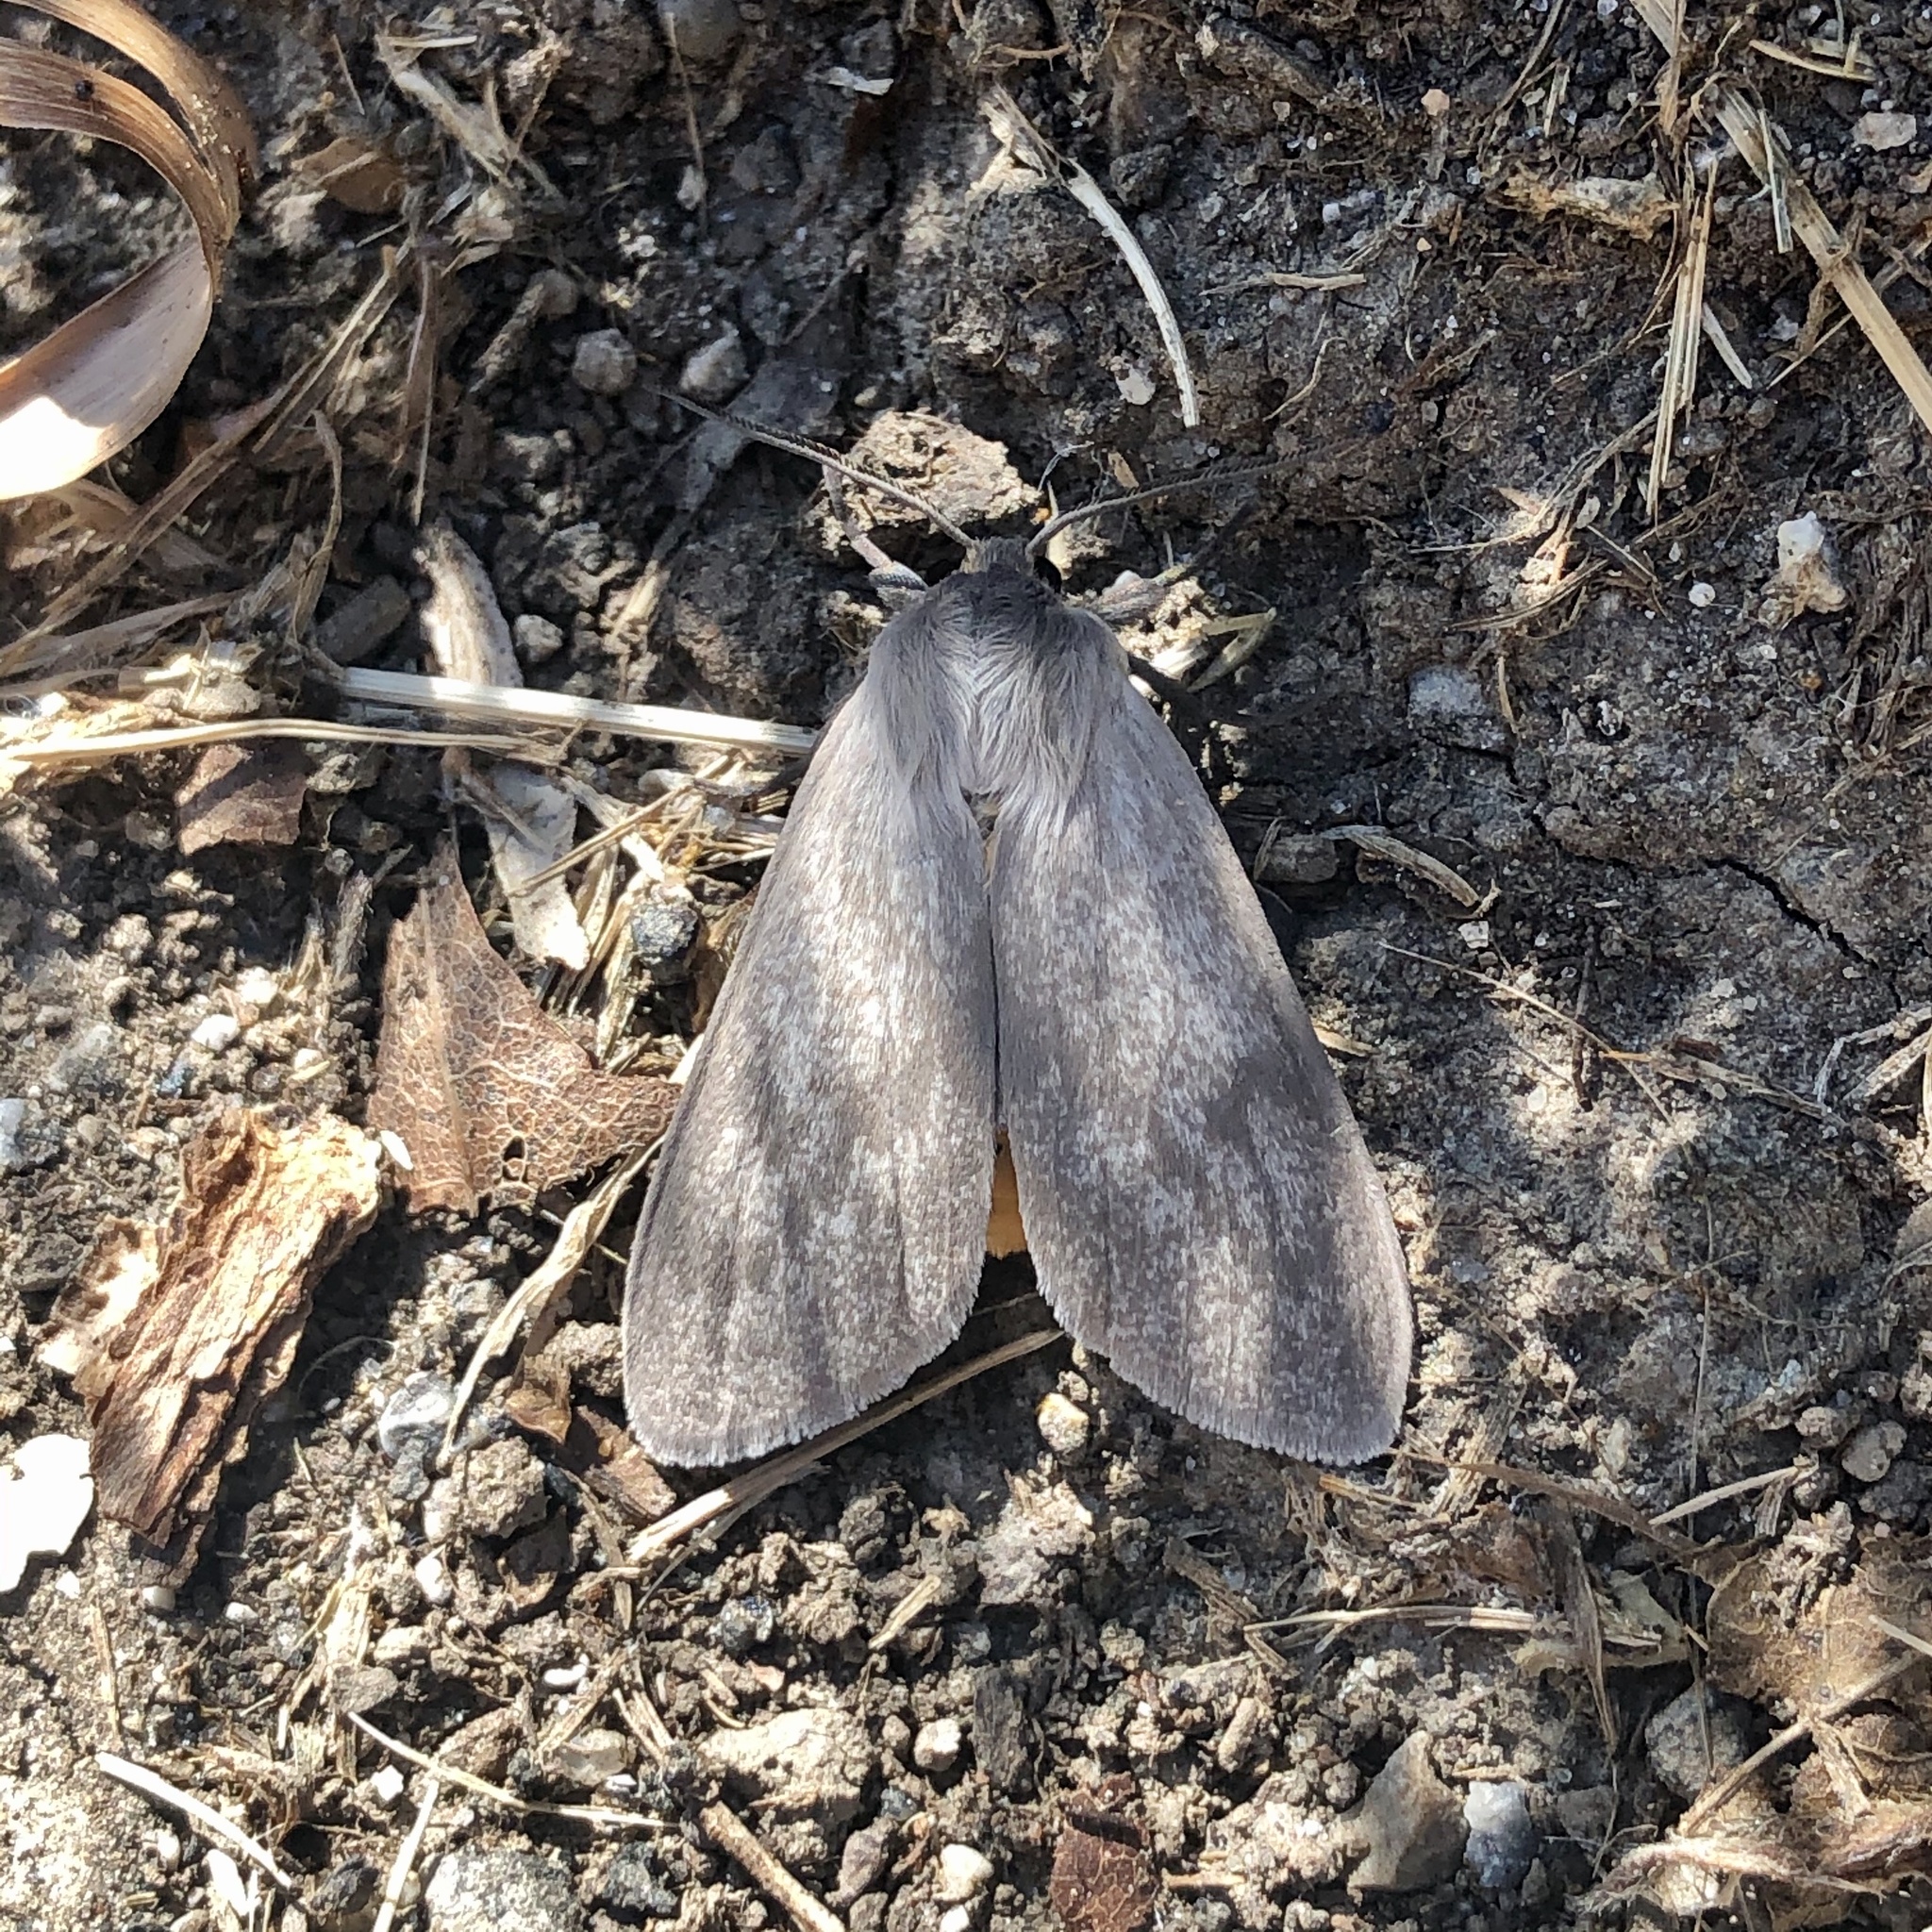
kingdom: Animalia
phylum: Arthropoda
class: Insecta
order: Lepidoptera
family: Erebidae
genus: Euchaetes
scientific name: Euchaetes egle
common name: Milkweed tussock moth
